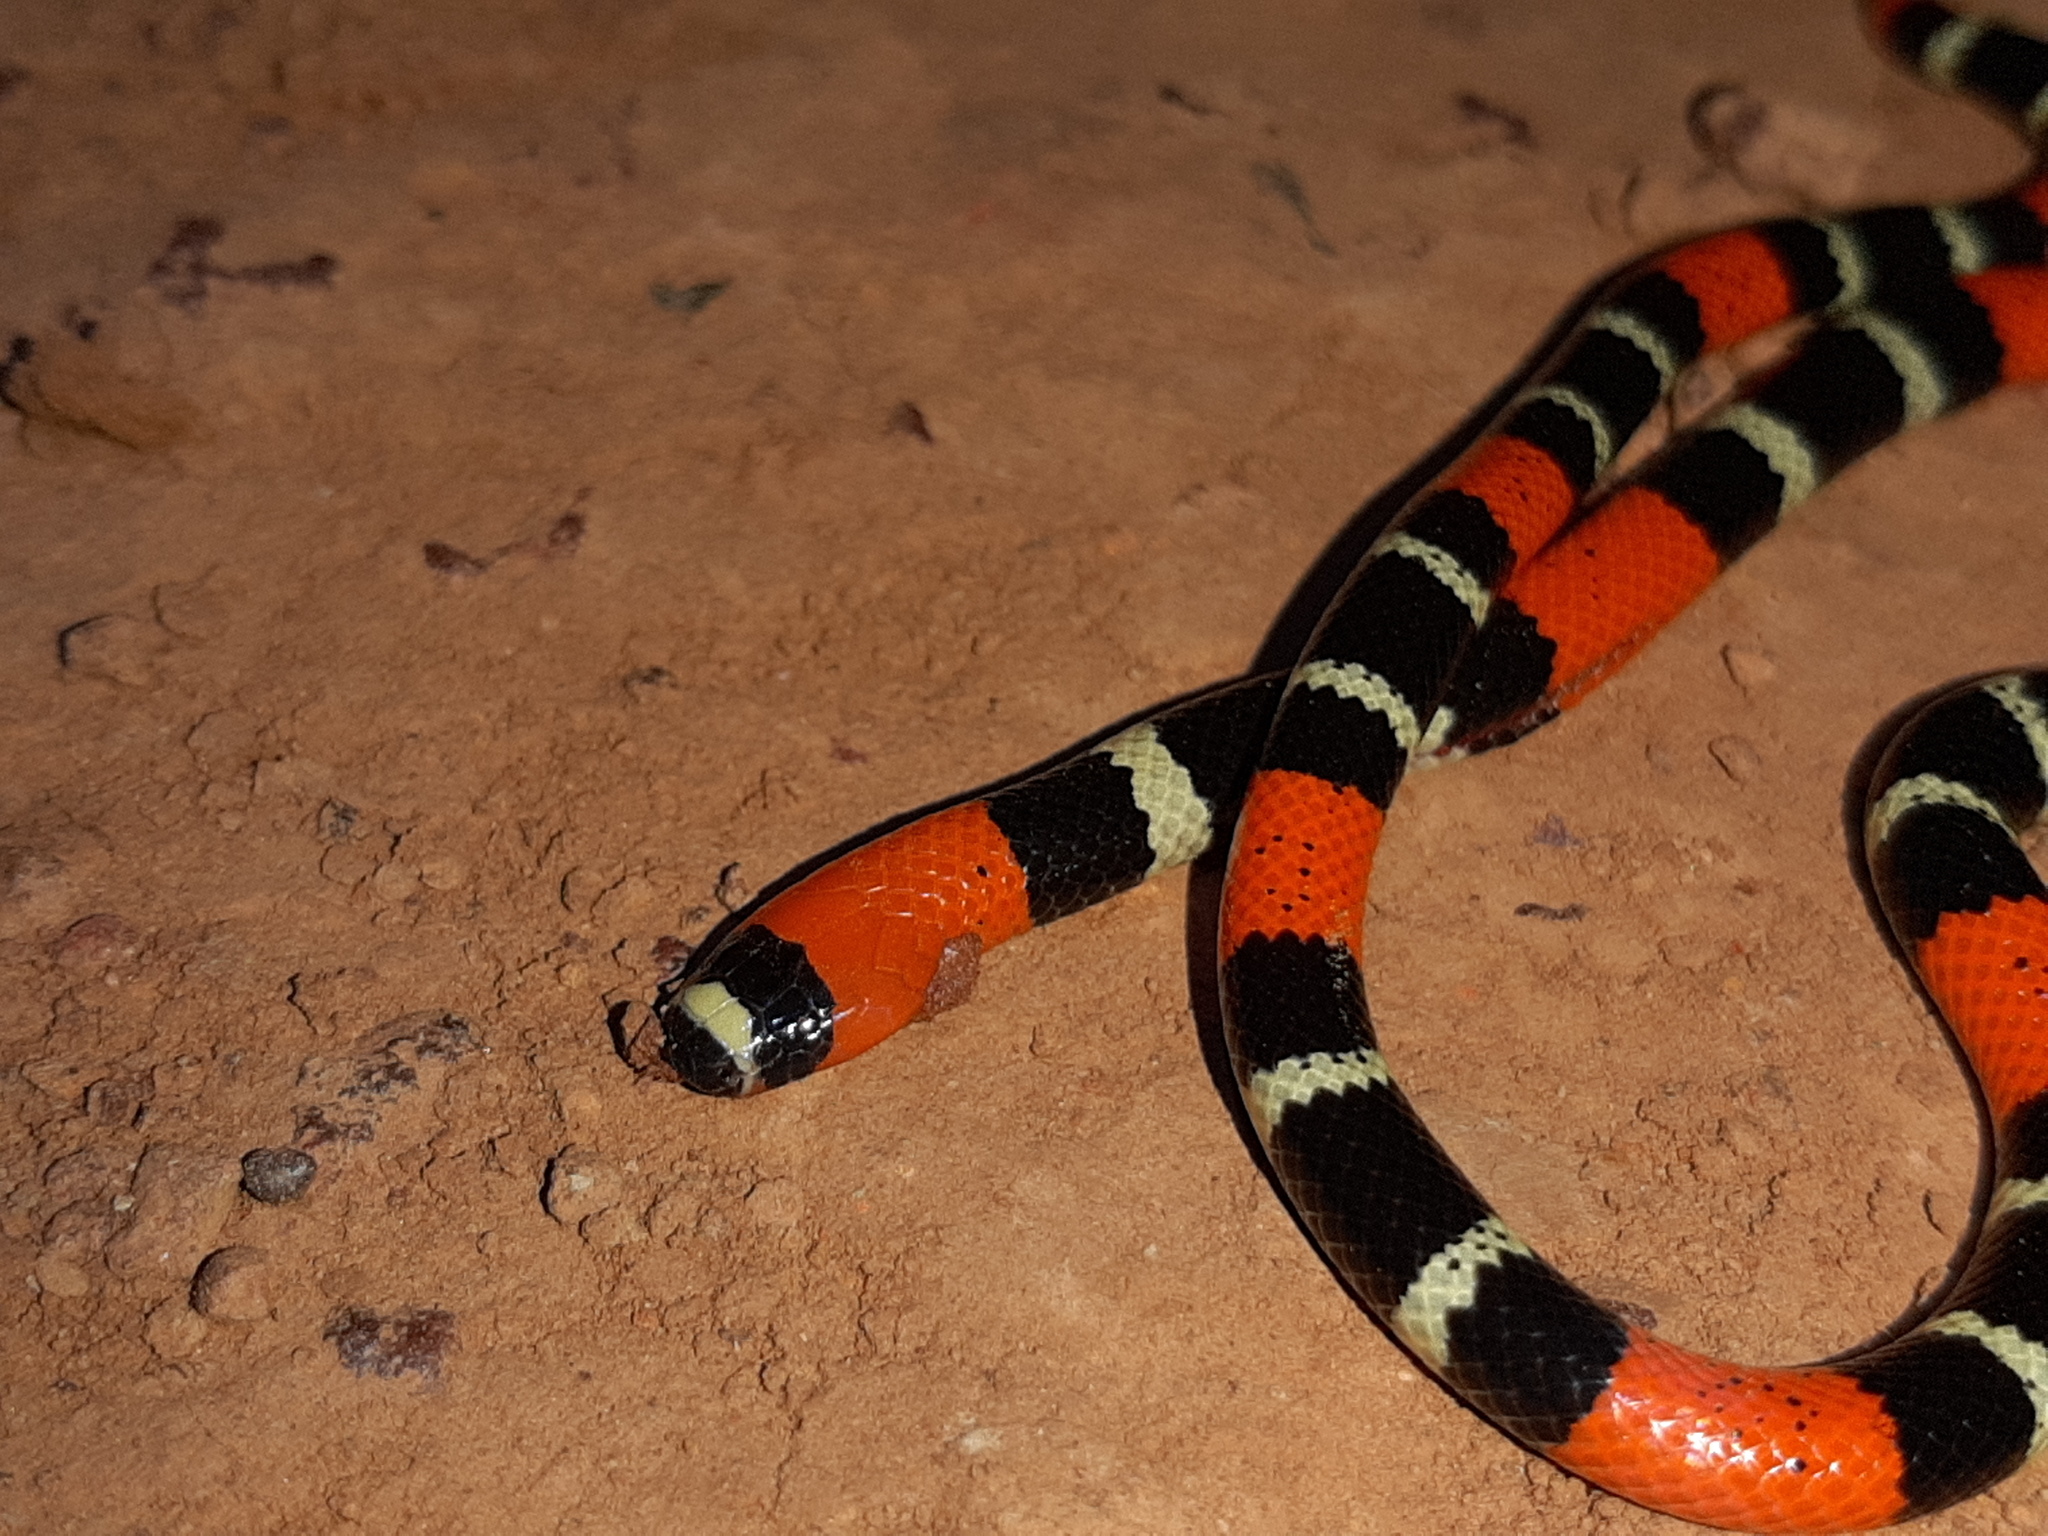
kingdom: Animalia
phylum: Chordata
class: Squamata
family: Elapidae
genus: Micrurus
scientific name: Micrurus lemniscatus
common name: South american coral snake
